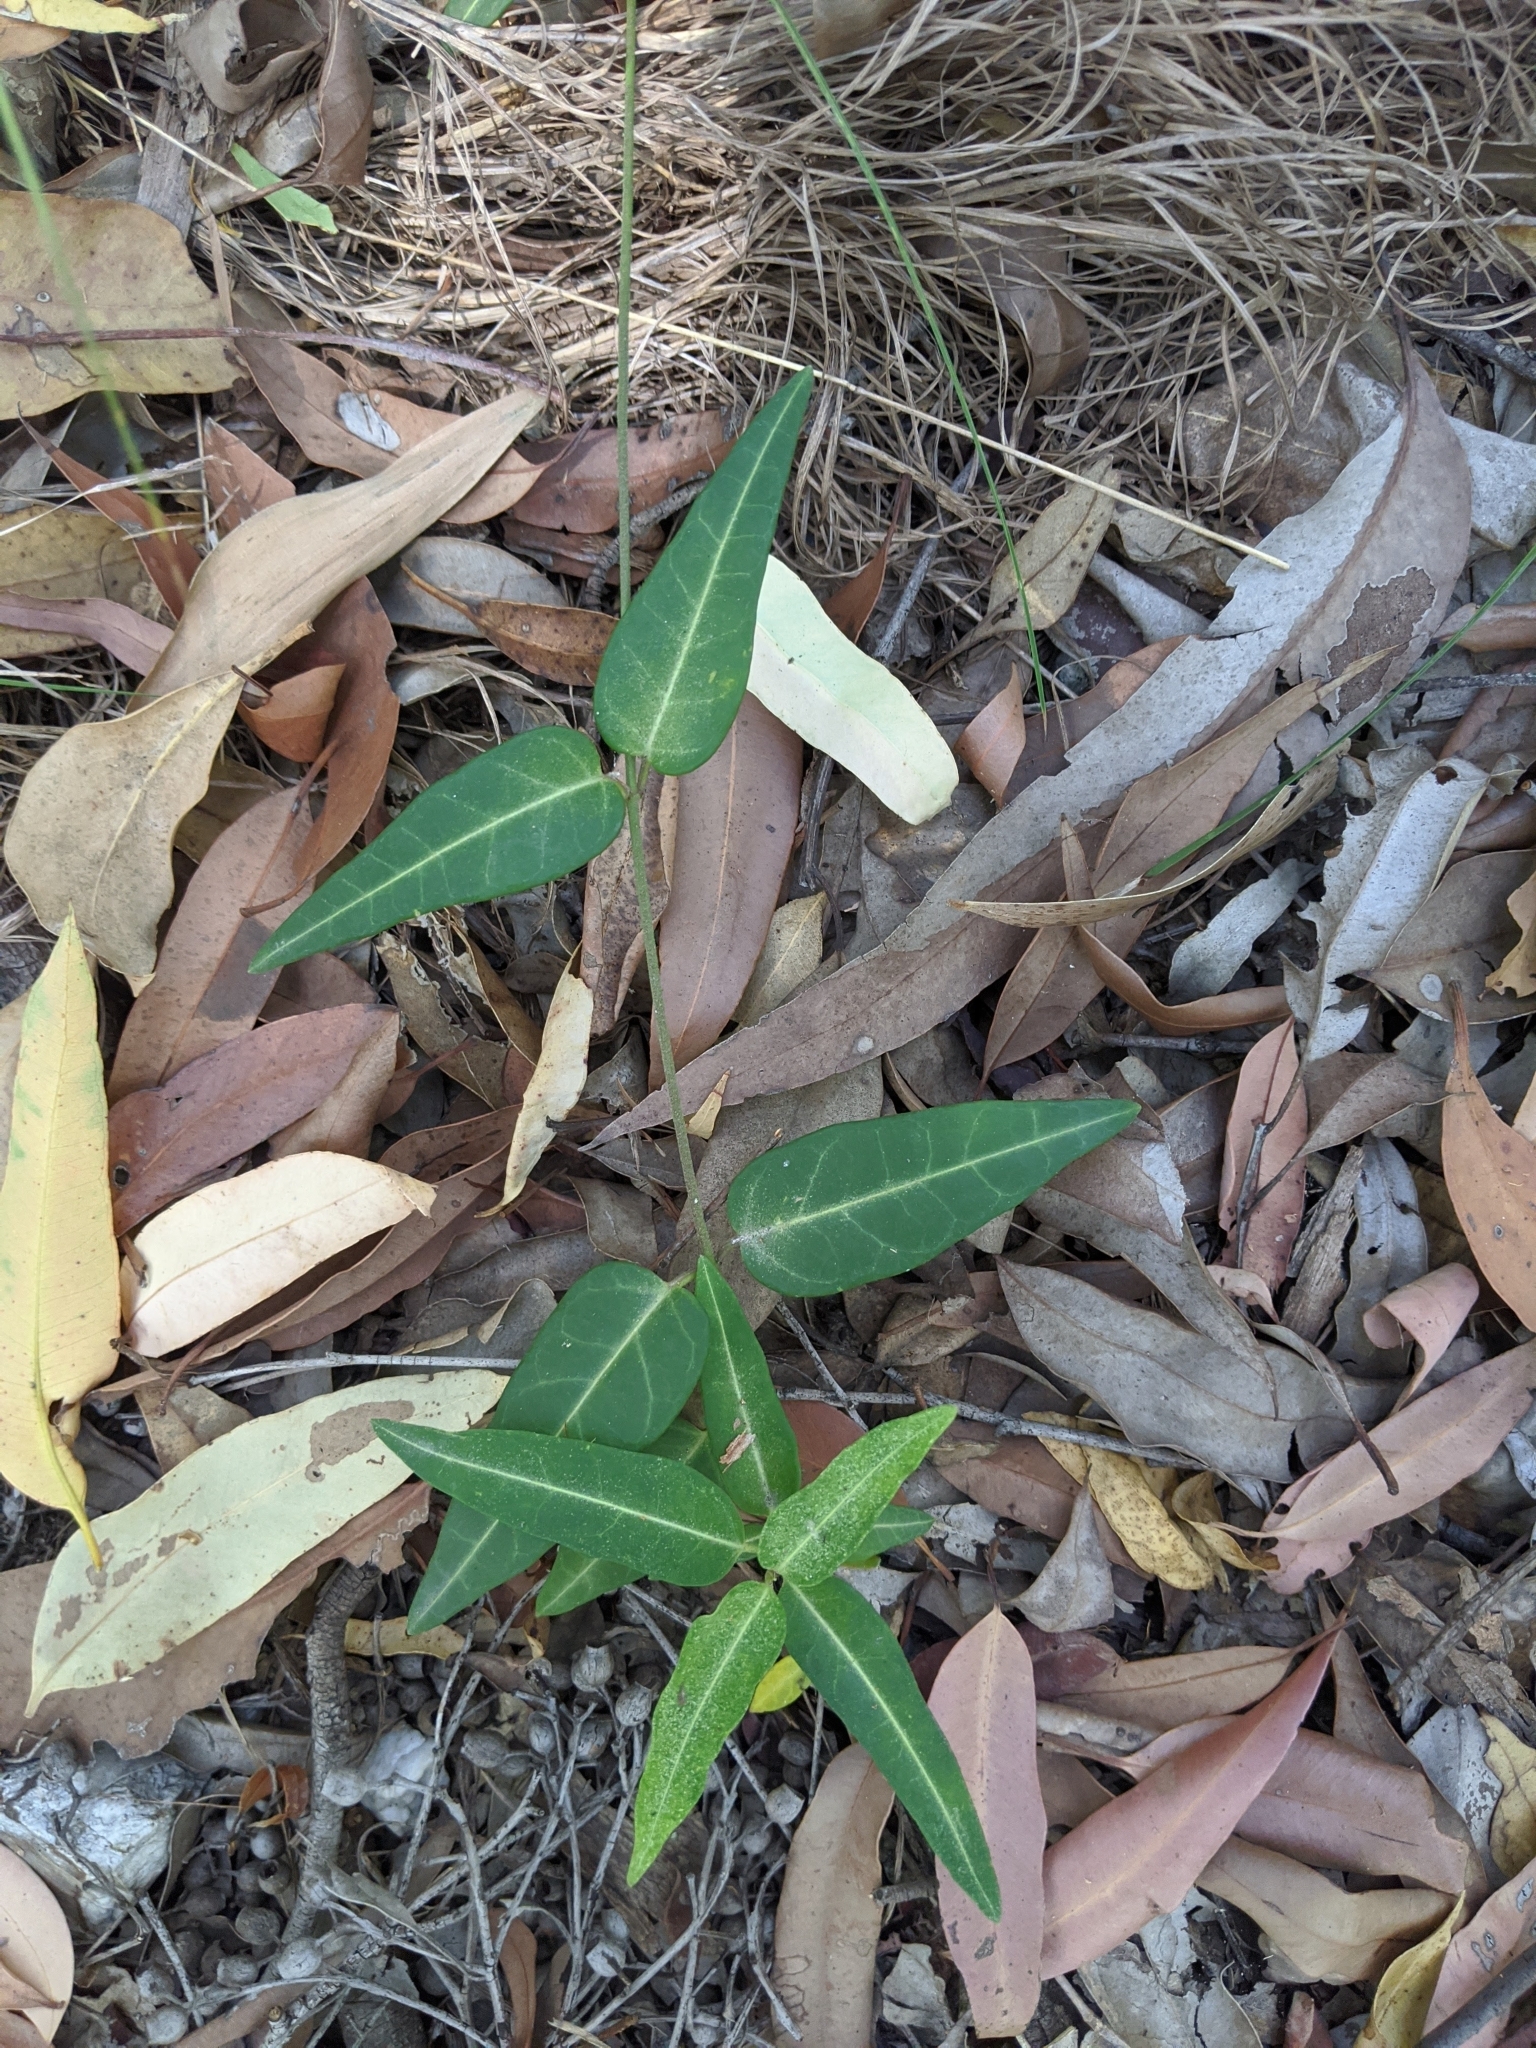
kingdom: Plantae
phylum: Tracheophyta
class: Magnoliopsida
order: Gentianales
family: Apocynaceae
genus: Leichhardtia
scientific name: Leichhardtia coronata
